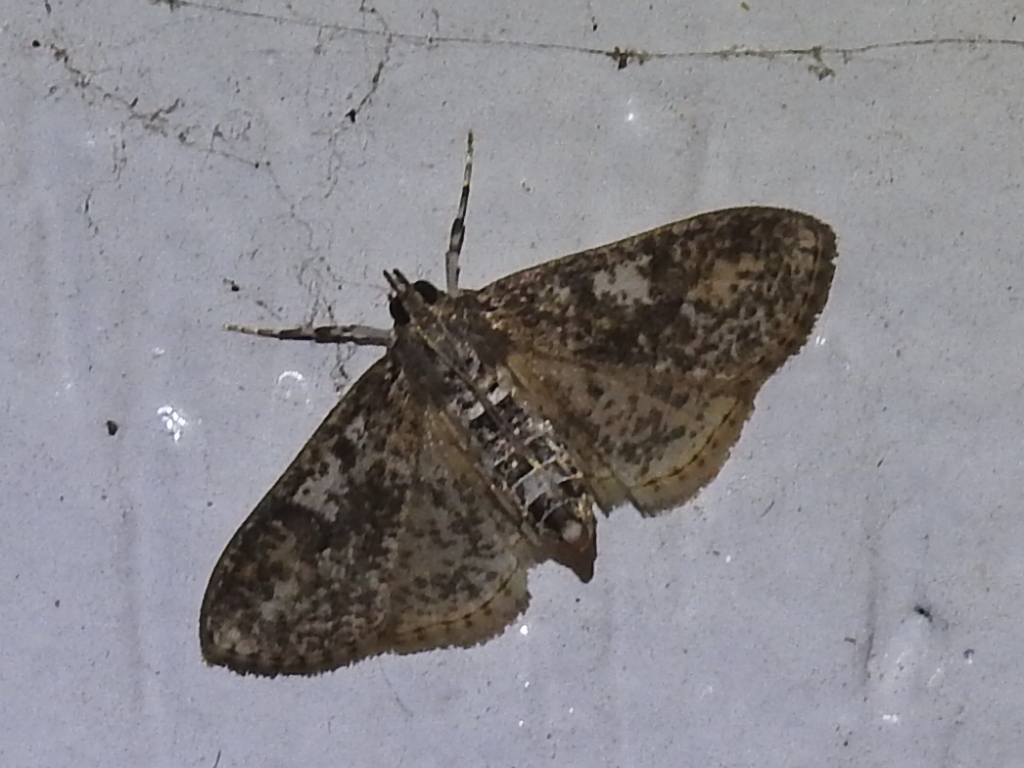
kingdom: Animalia
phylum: Arthropoda
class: Insecta
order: Lepidoptera
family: Crambidae
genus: Palpita
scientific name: Palpita magniferalis
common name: Splendid palpita moth
